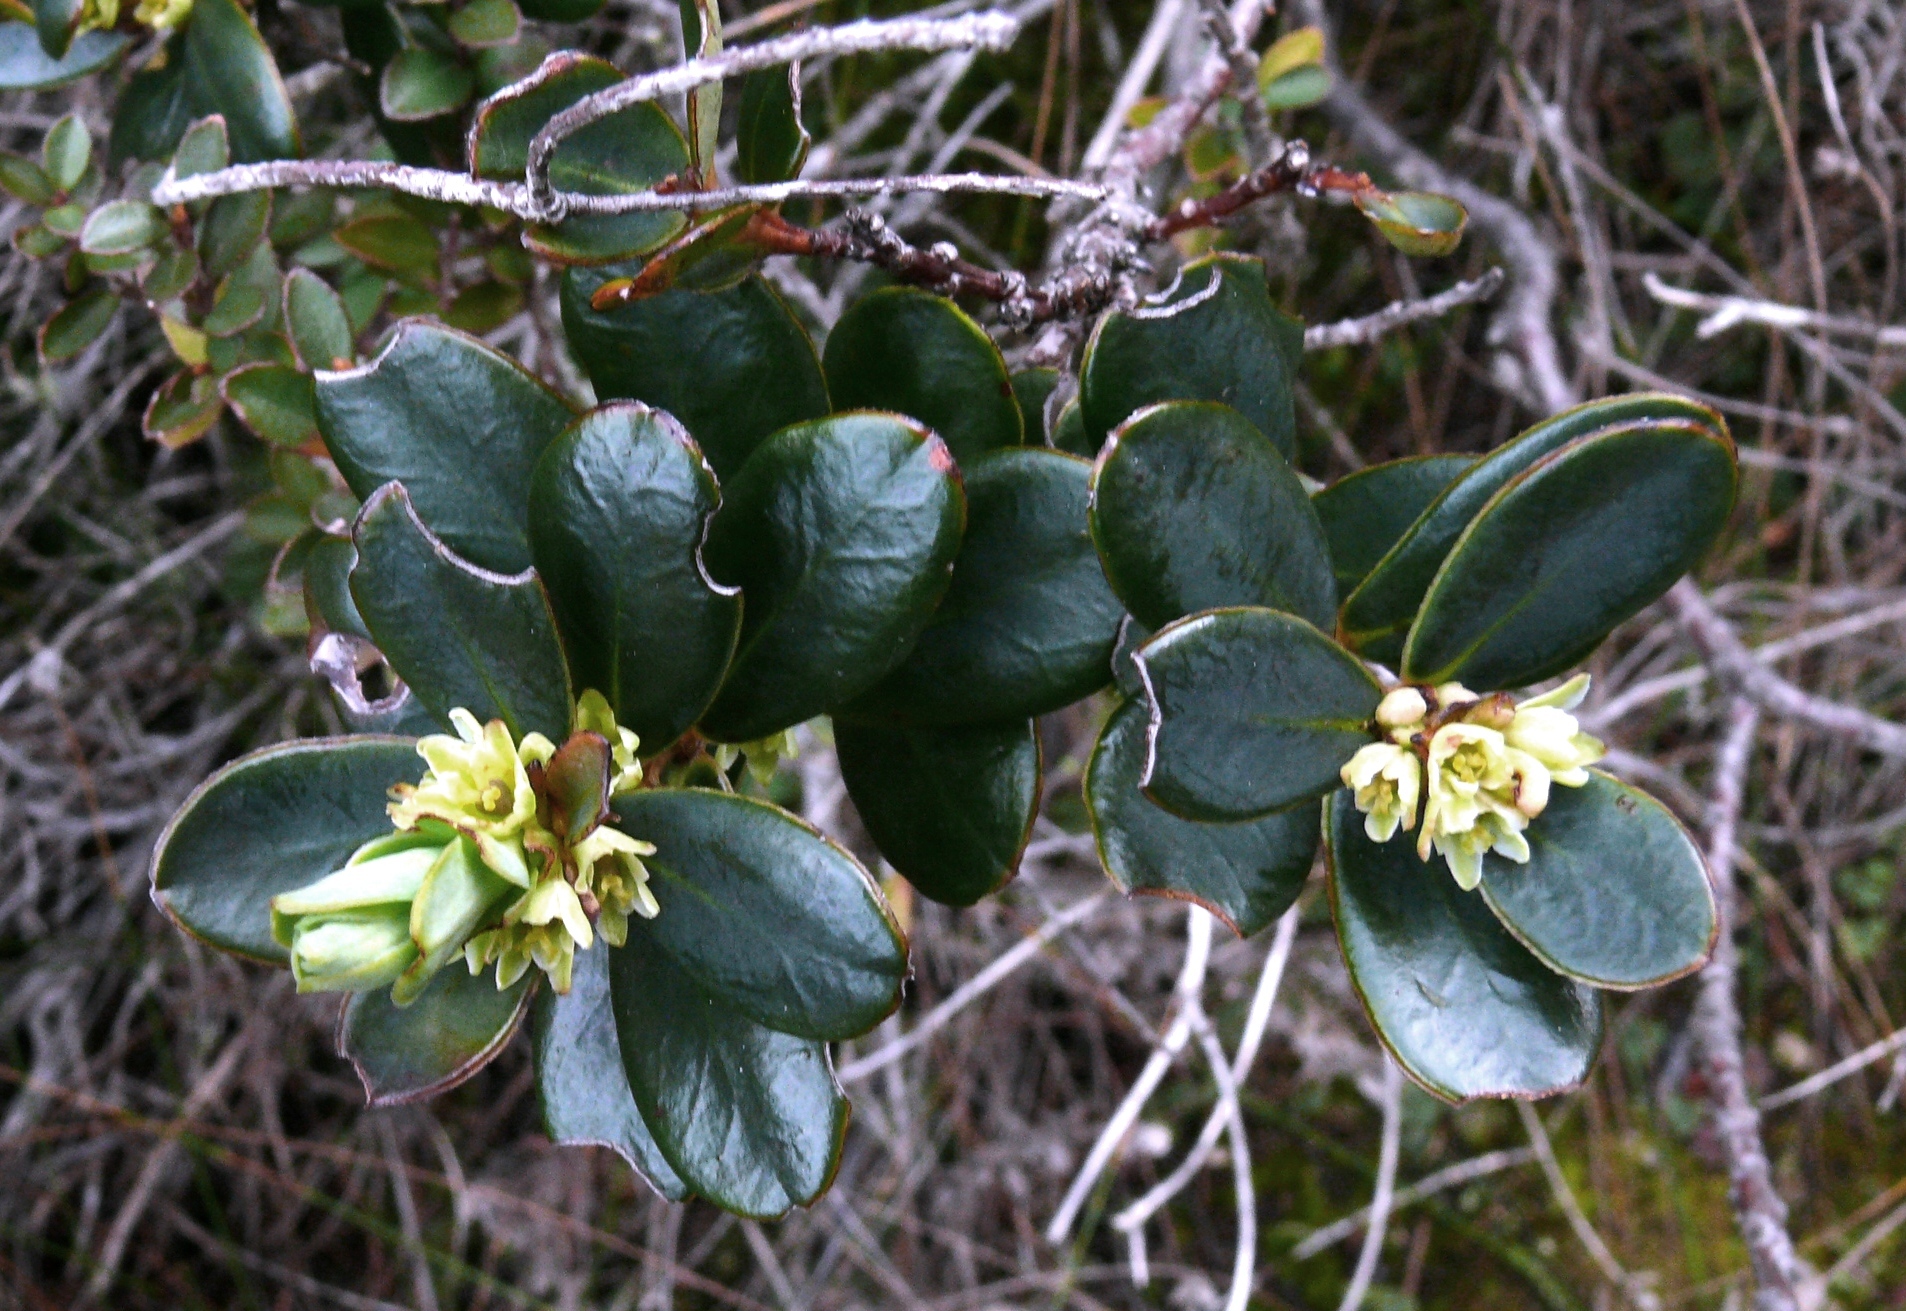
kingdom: Plantae
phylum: Tracheophyta
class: Magnoliopsida
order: Malpighiales
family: Peraceae
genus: Clutia
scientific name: Clutia alaternoides
